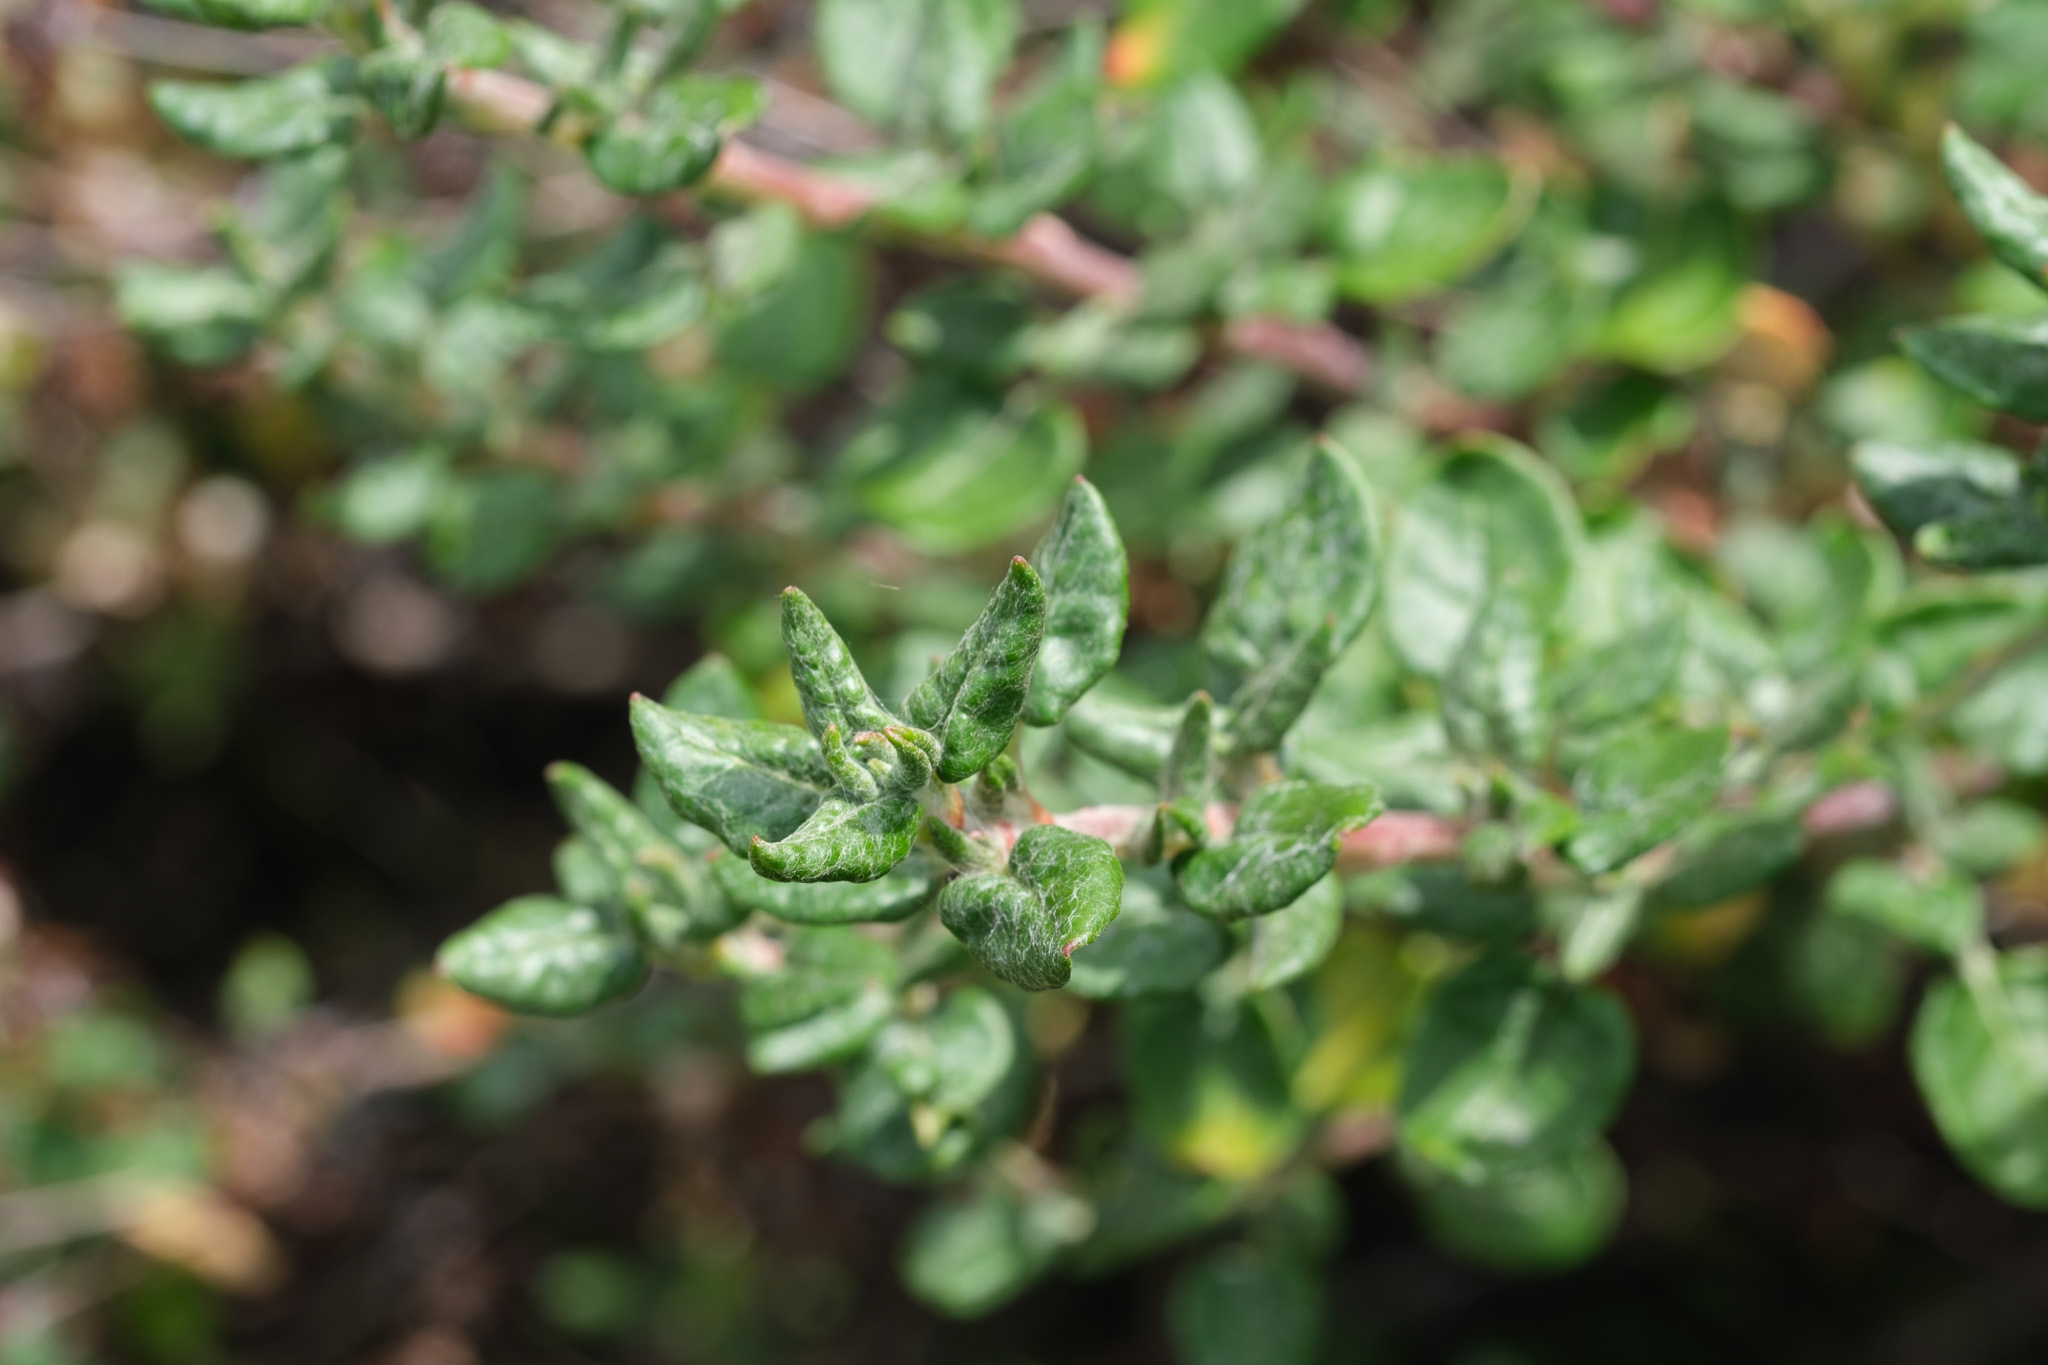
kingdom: Plantae
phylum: Tracheophyta
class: Magnoliopsida
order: Caryophyllales
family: Polygonaceae
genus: Eriogonum
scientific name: Eriogonum parvifolium
